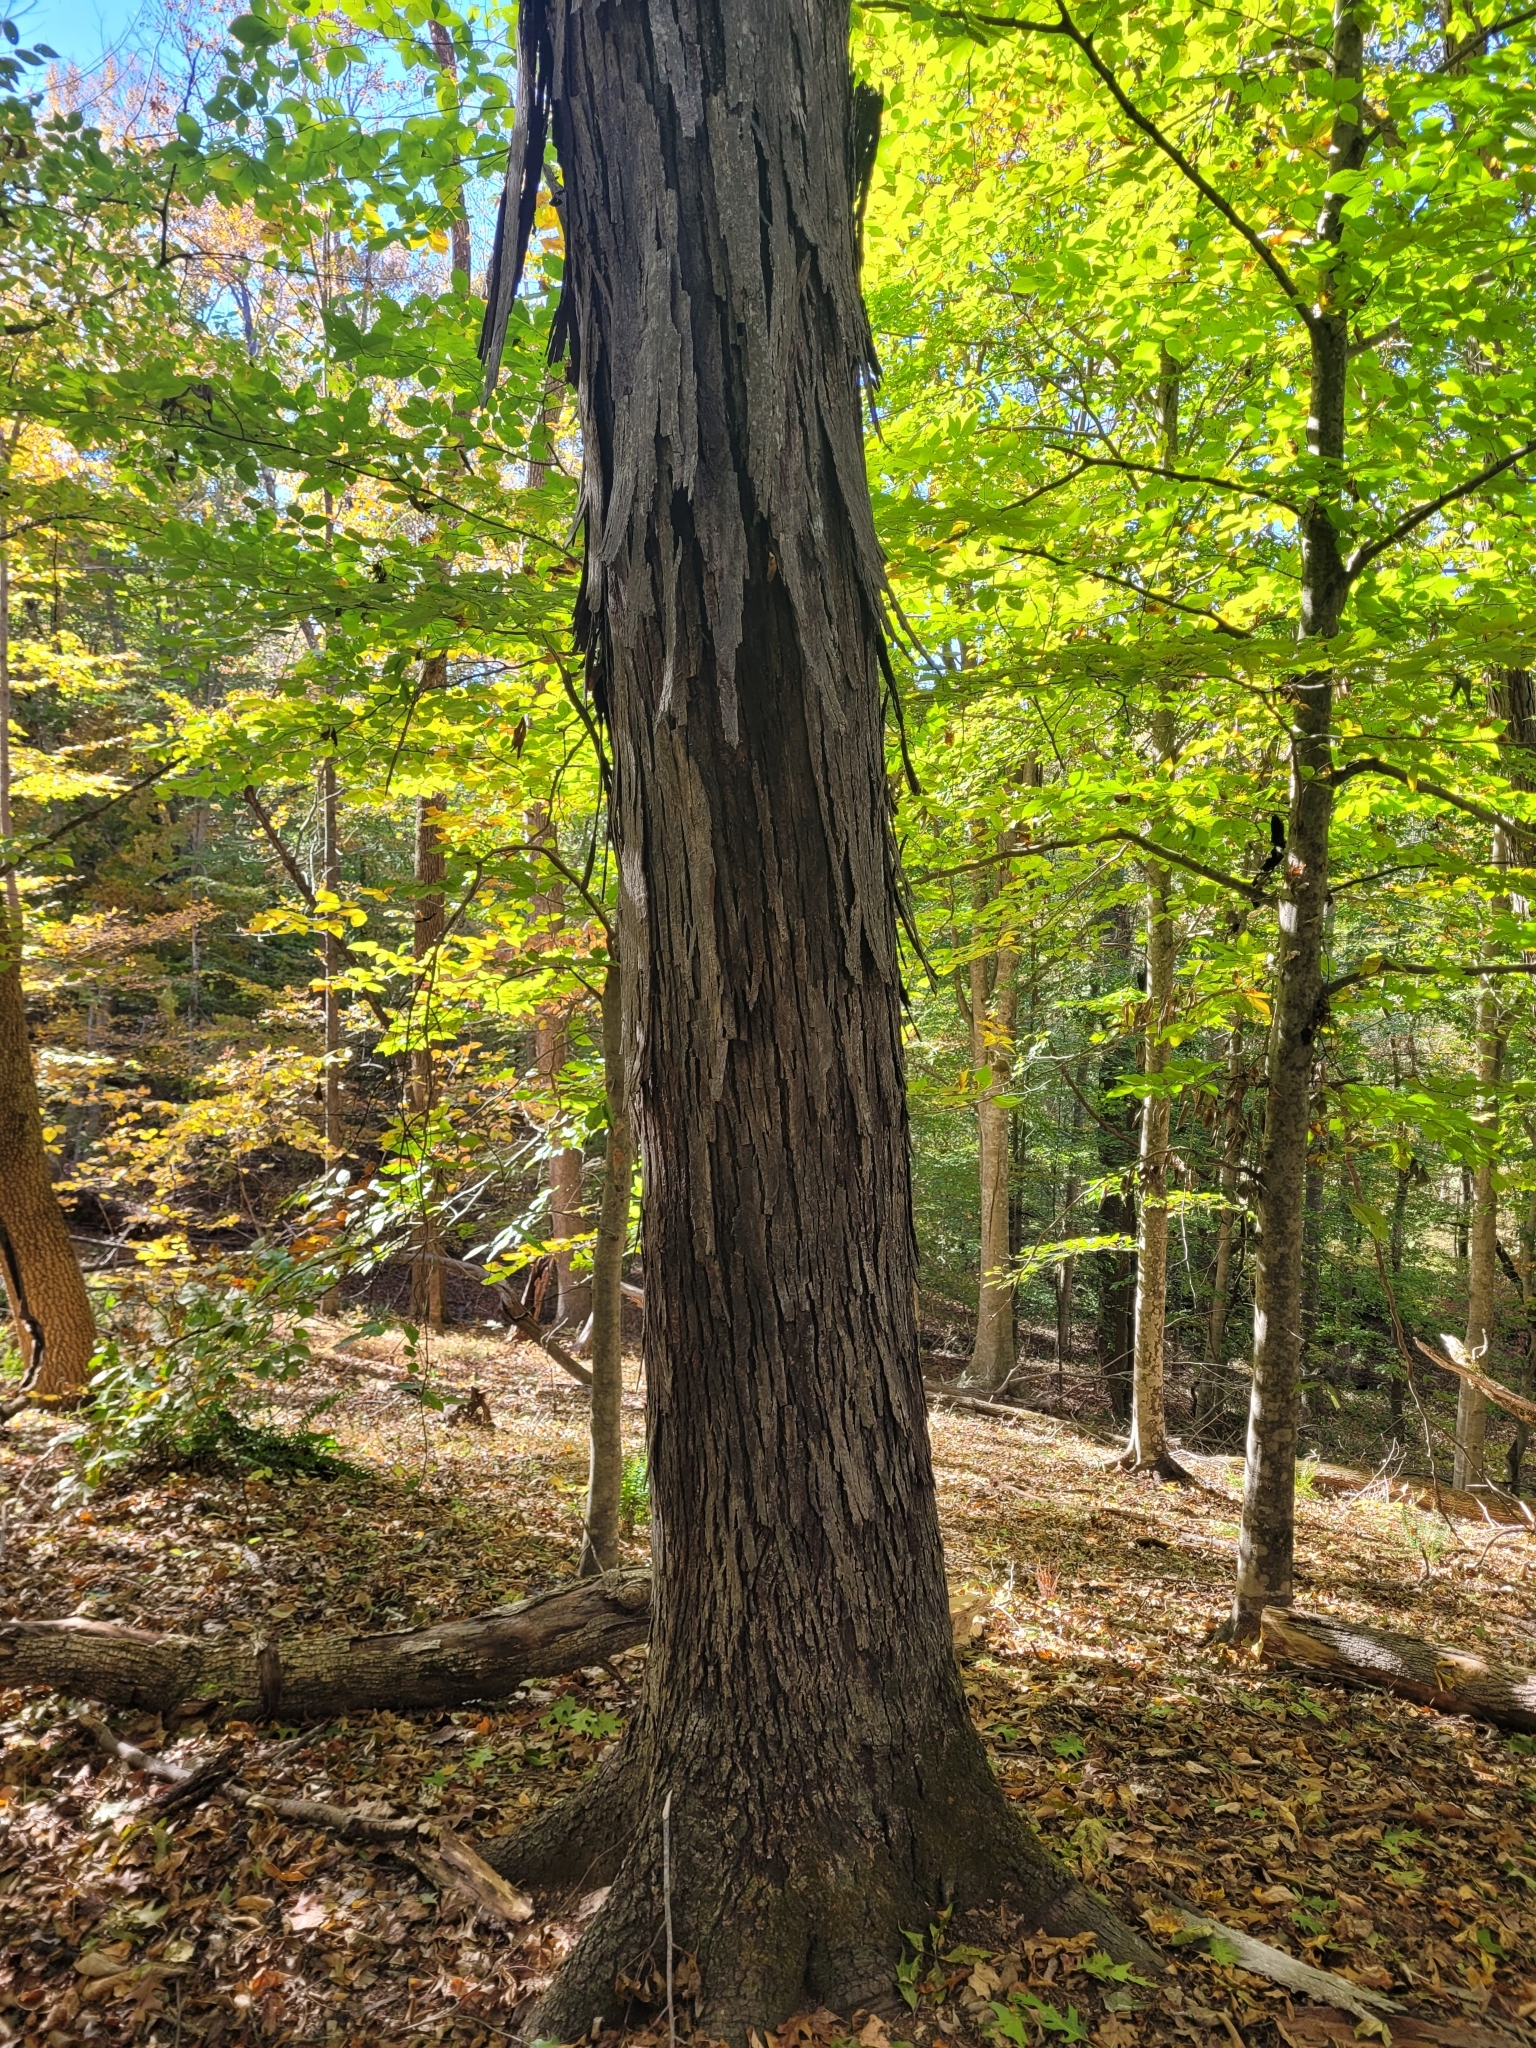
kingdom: Plantae
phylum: Tracheophyta
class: Magnoliopsida
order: Fagales
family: Juglandaceae
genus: Carya
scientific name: Carya ovata
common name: Shagbark hickory
